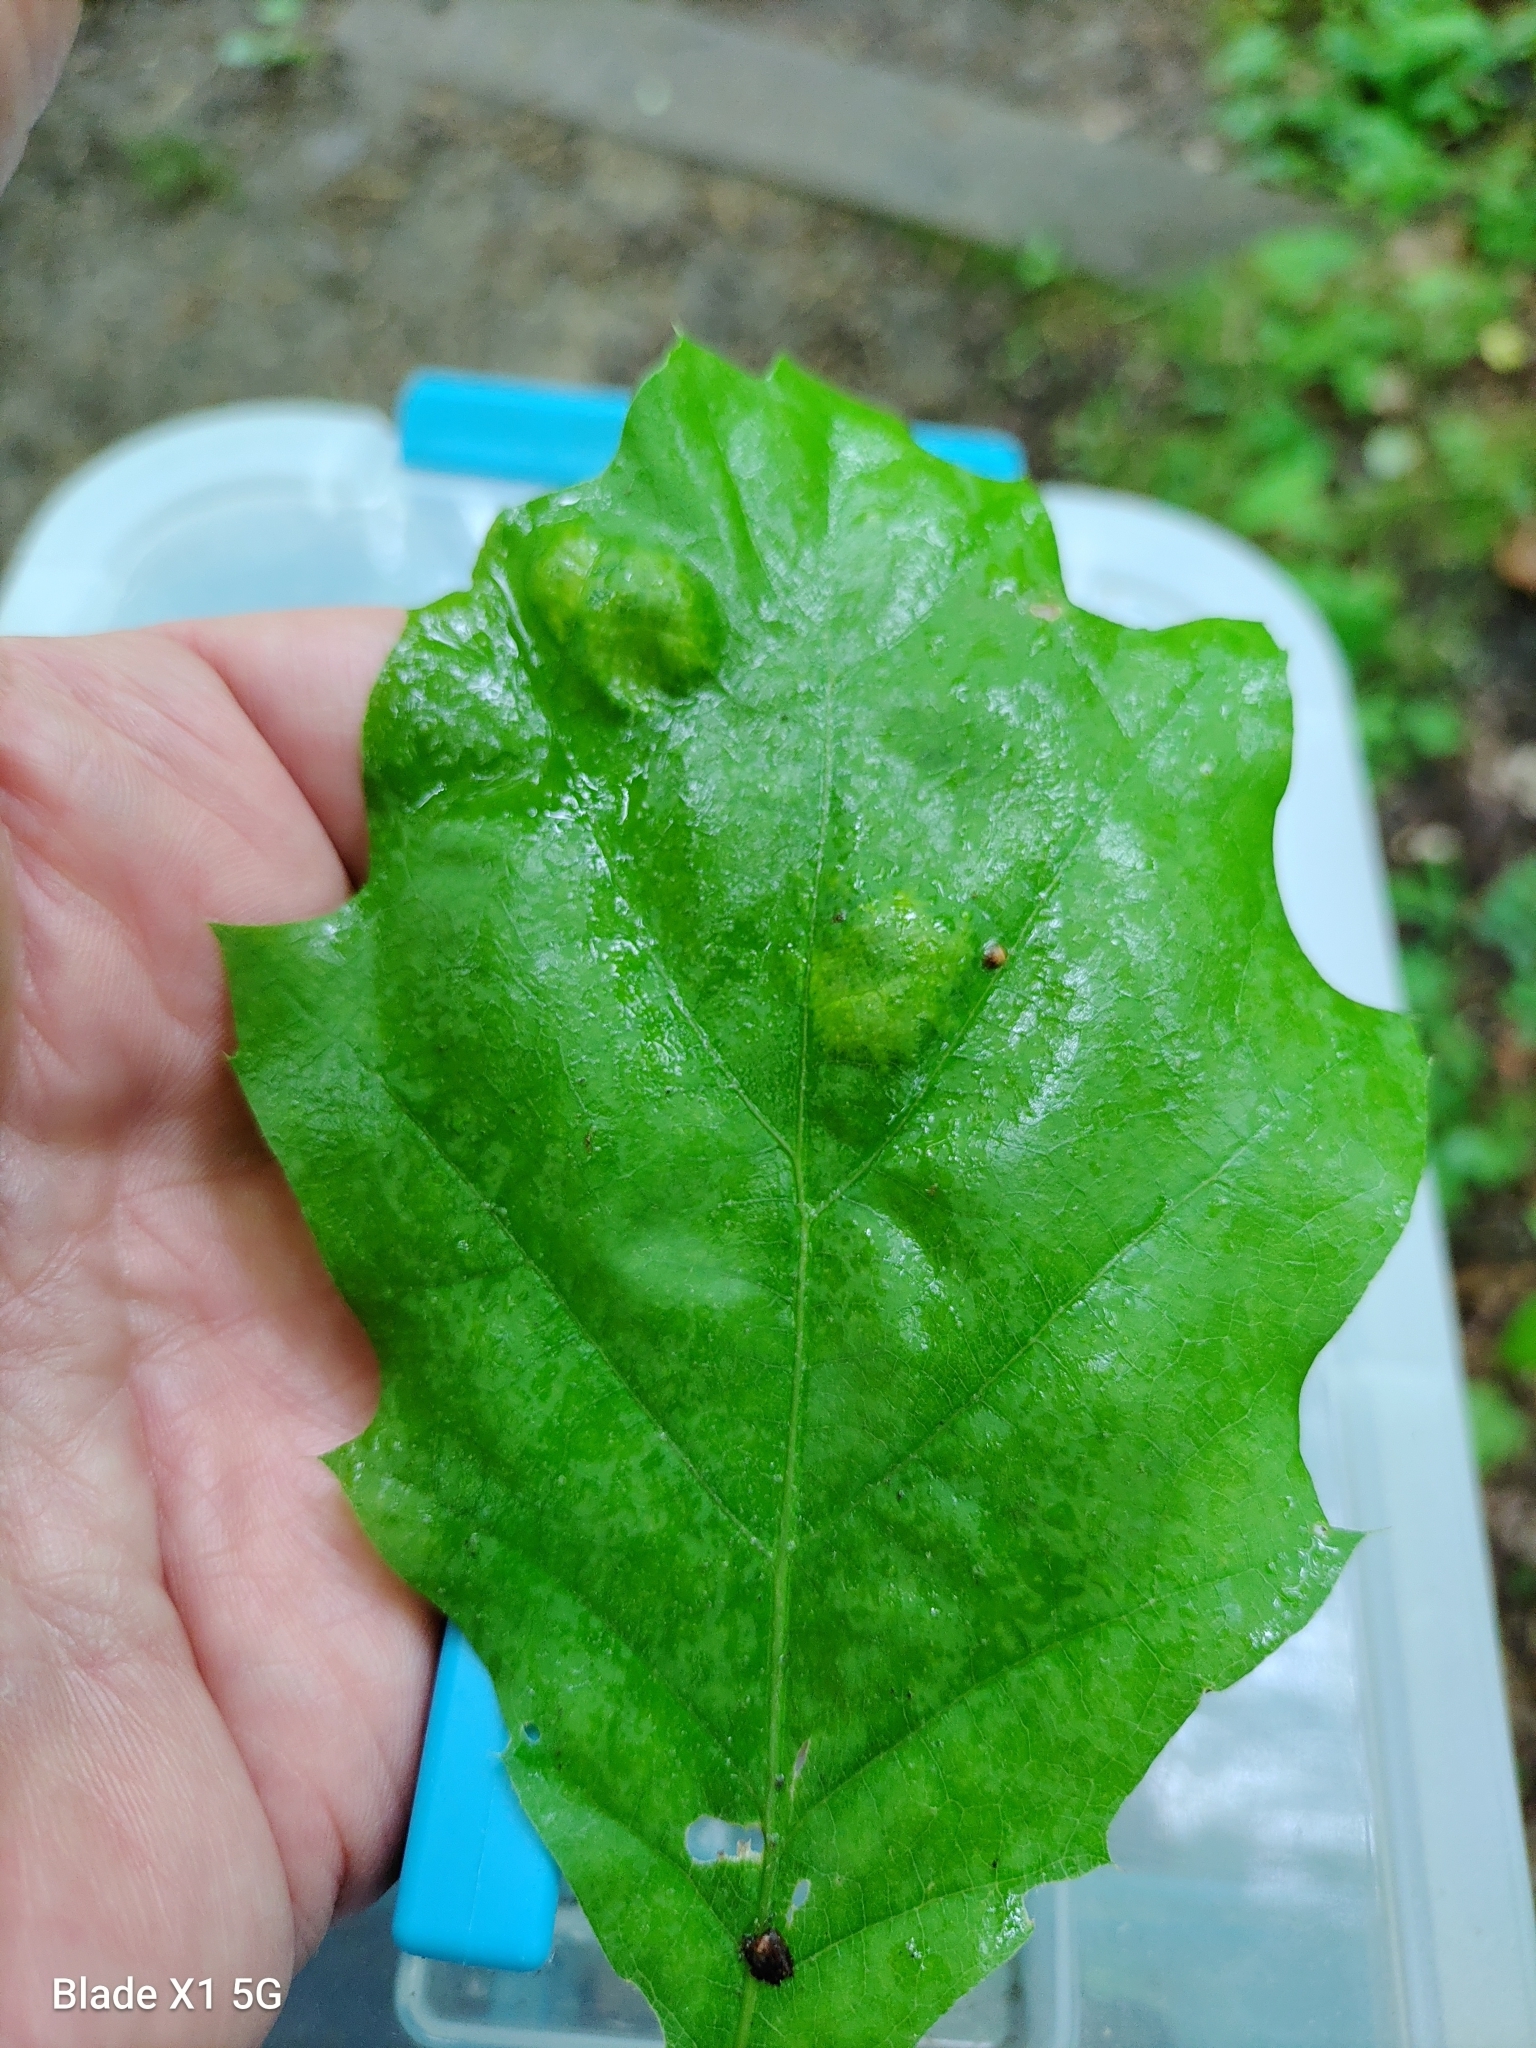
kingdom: Fungi
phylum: Ascomycota
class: Taphrinomycetes
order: Taphrinales
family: Taphrinaceae
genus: Taphrina
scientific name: Taphrina caerulescens
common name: Oak leaf blister
